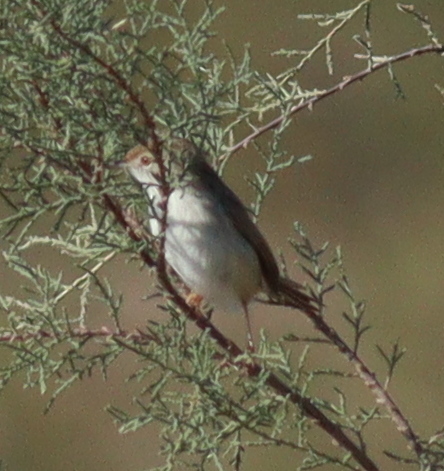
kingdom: Animalia
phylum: Chordata
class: Aves
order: Passeriformes
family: Cisticolidae
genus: Prinia
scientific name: Prinia gracilis
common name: Graceful prinia
